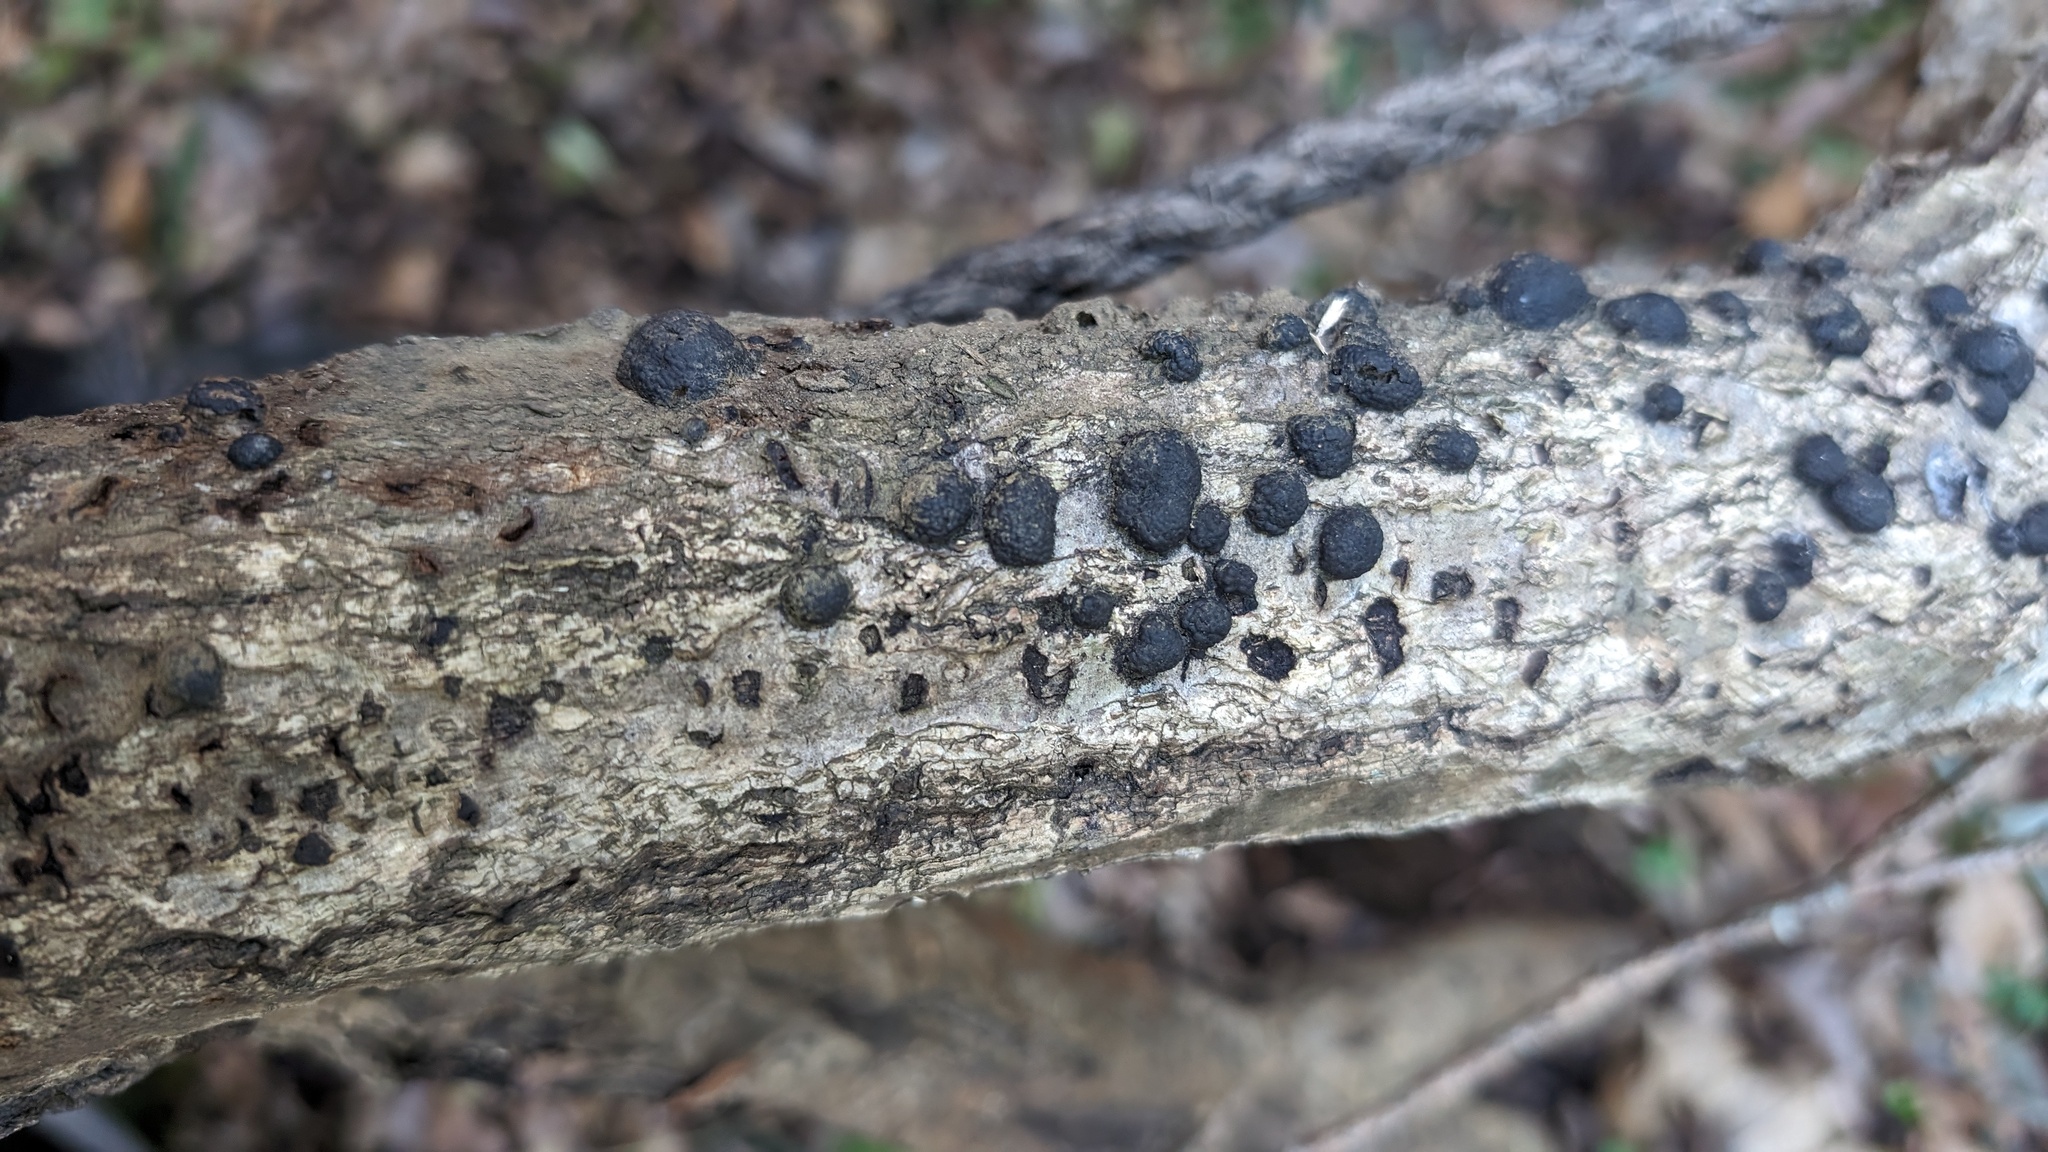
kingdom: Fungi
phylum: Ascomycota
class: Sordariomycetes
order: Xylariales
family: Hypoxylaceae
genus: Annulohypoxylon
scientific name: Annulohypoxylon truncatum
